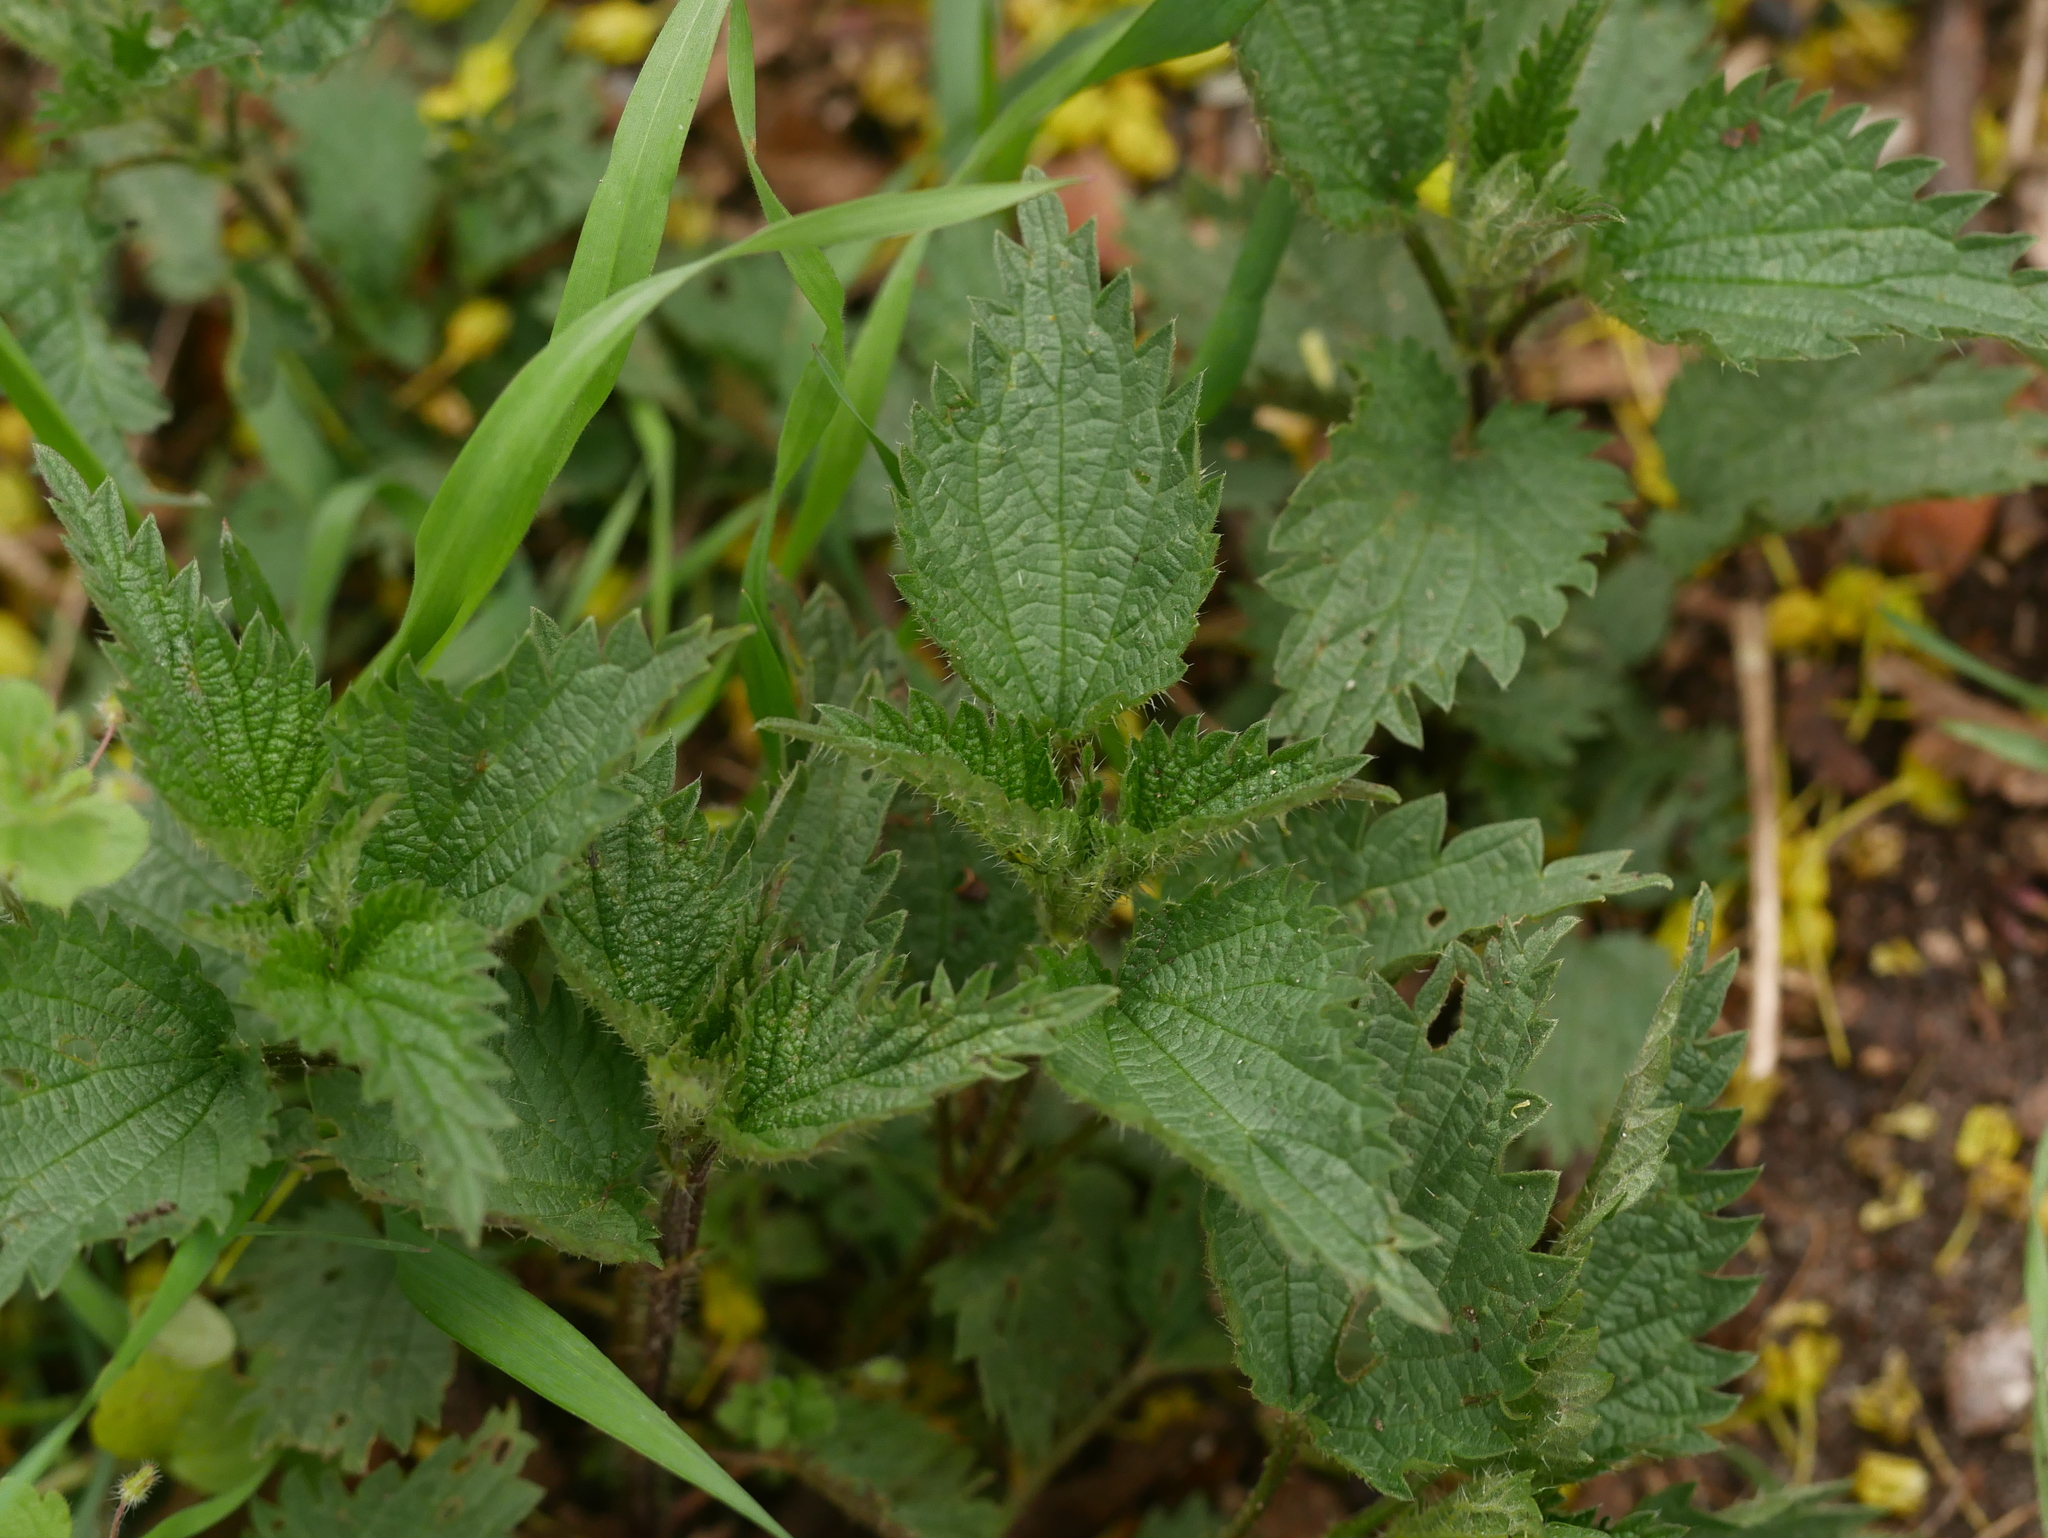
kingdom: Plantae
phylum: Tracheophyta
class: Magnoliopsida
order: Rosales
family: Urticaceae
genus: Urtica
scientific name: Urtica dioica
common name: Common nettle
